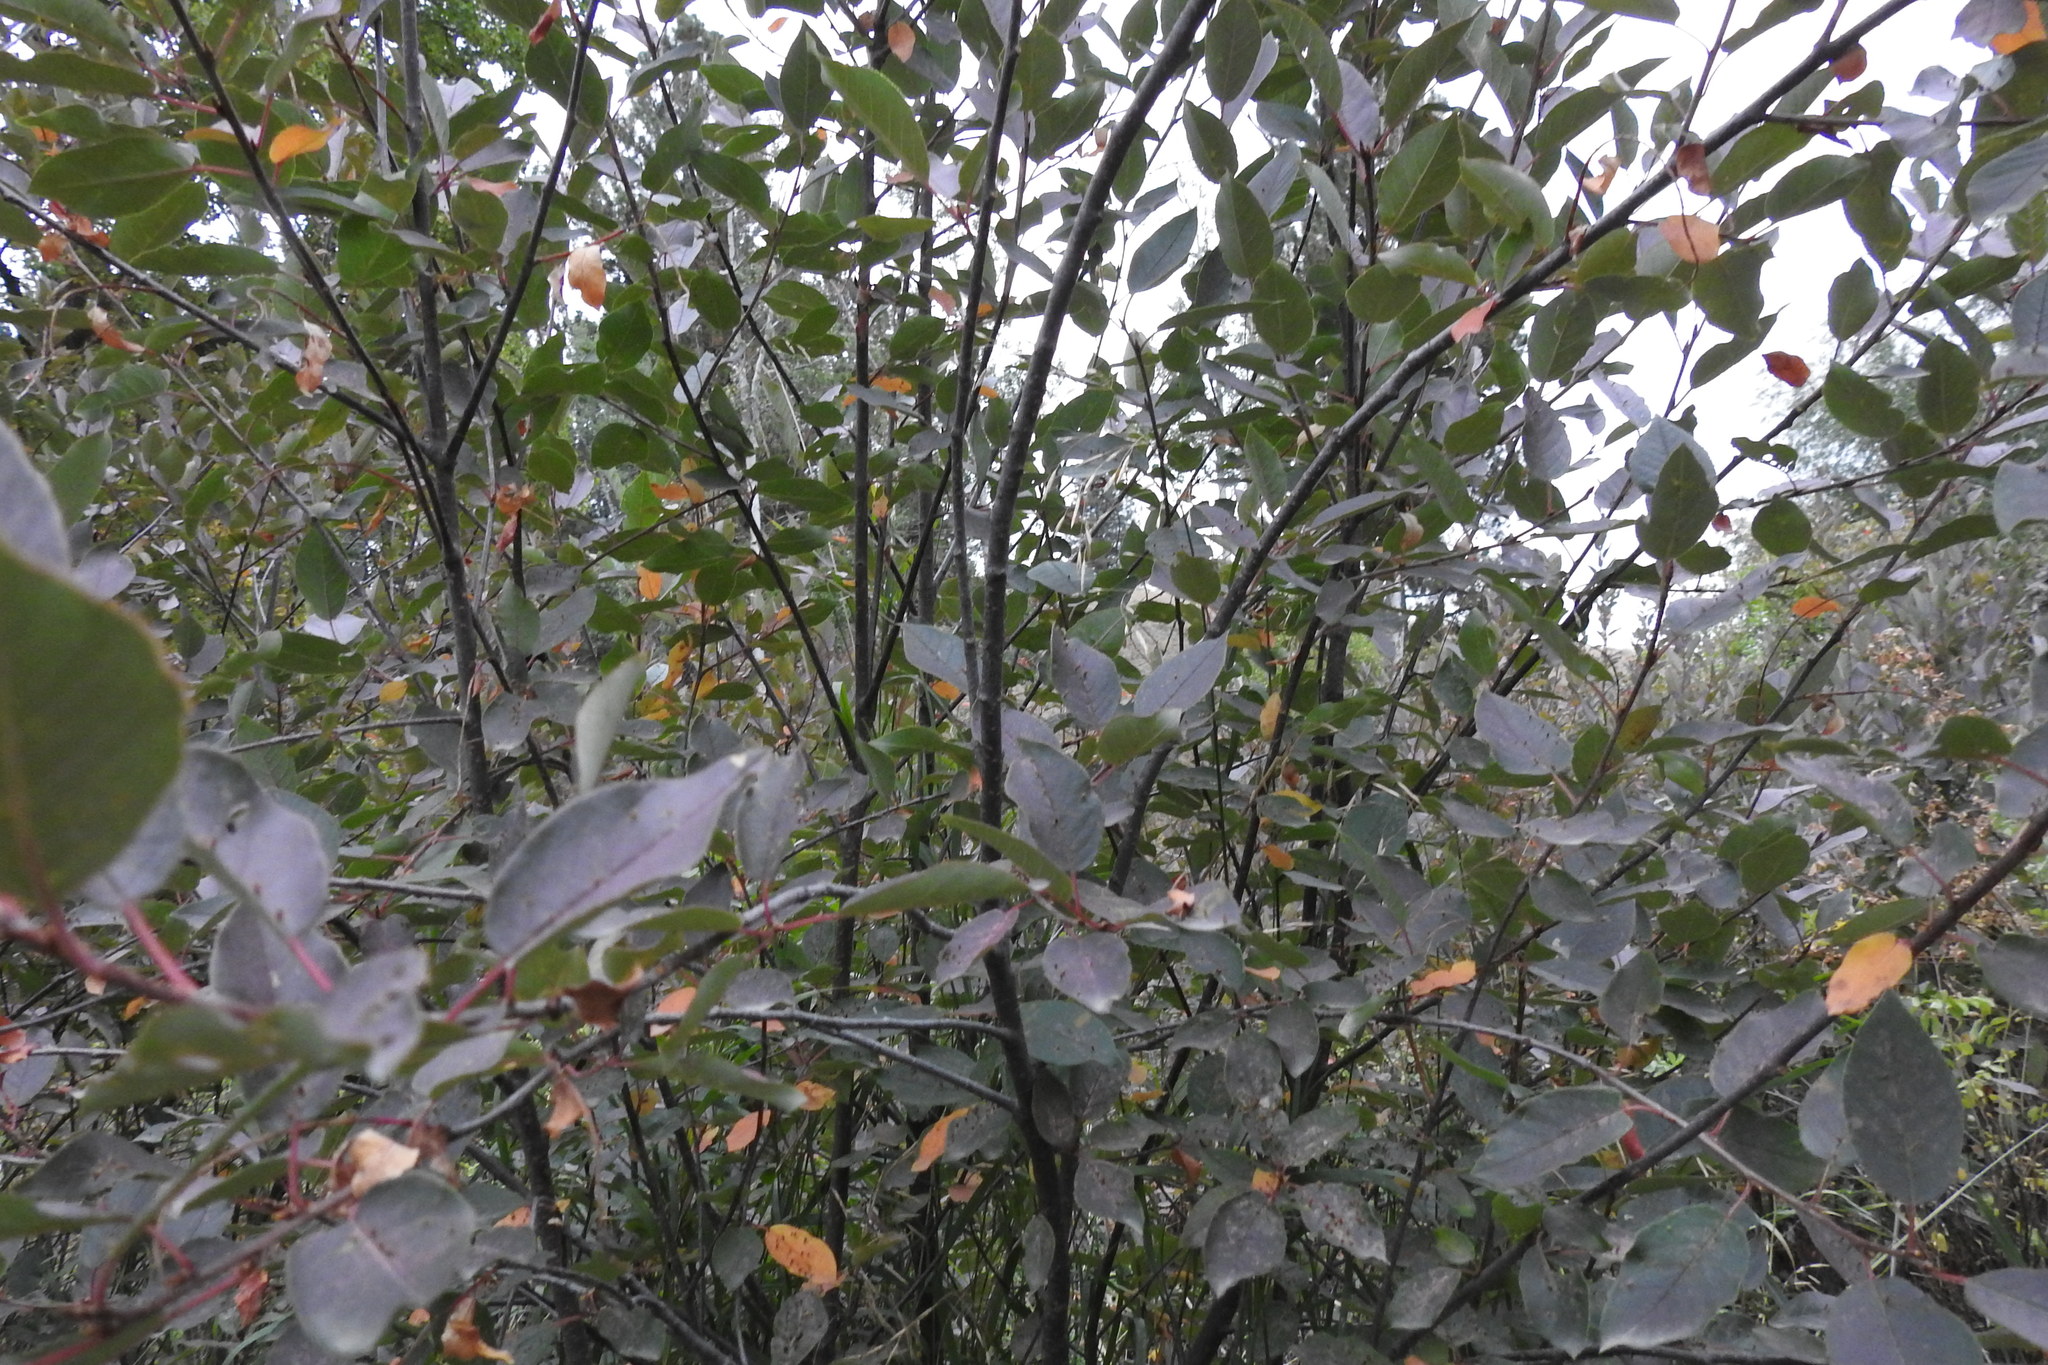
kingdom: Plantae
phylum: Tracheophyta
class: Magnoliopsida
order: Rosales
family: Rosaceae
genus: Prunus
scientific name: Prunus virginiana
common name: Chokecherry
